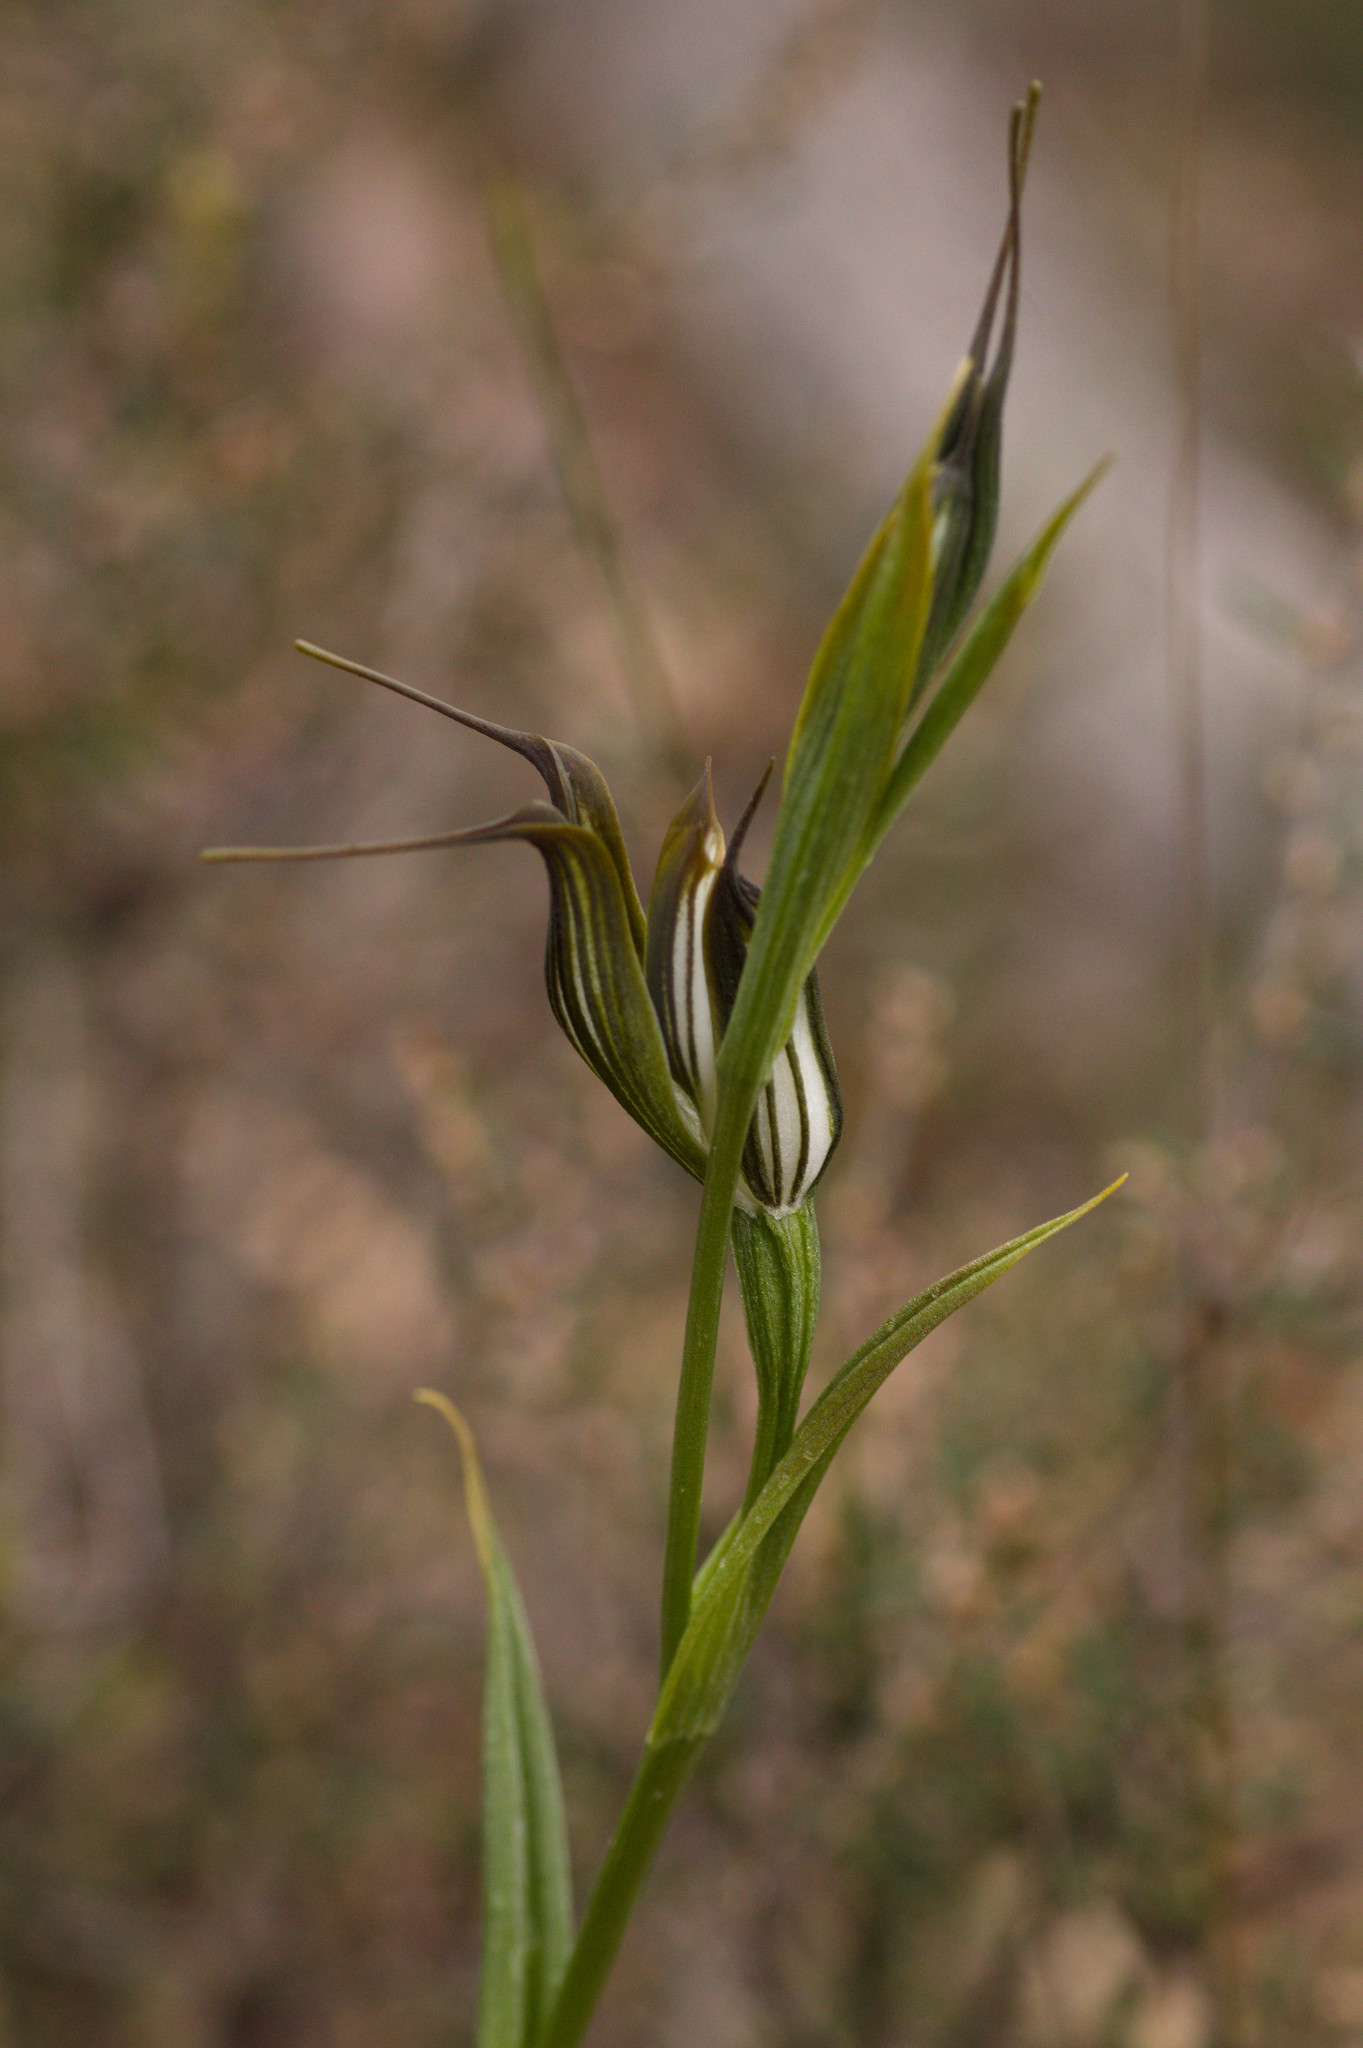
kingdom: Plantae
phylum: Tracheophyta
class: Liliopsida
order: Asparagales
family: Orchidaceae
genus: Pterostylis
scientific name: Pterostylis recurva
